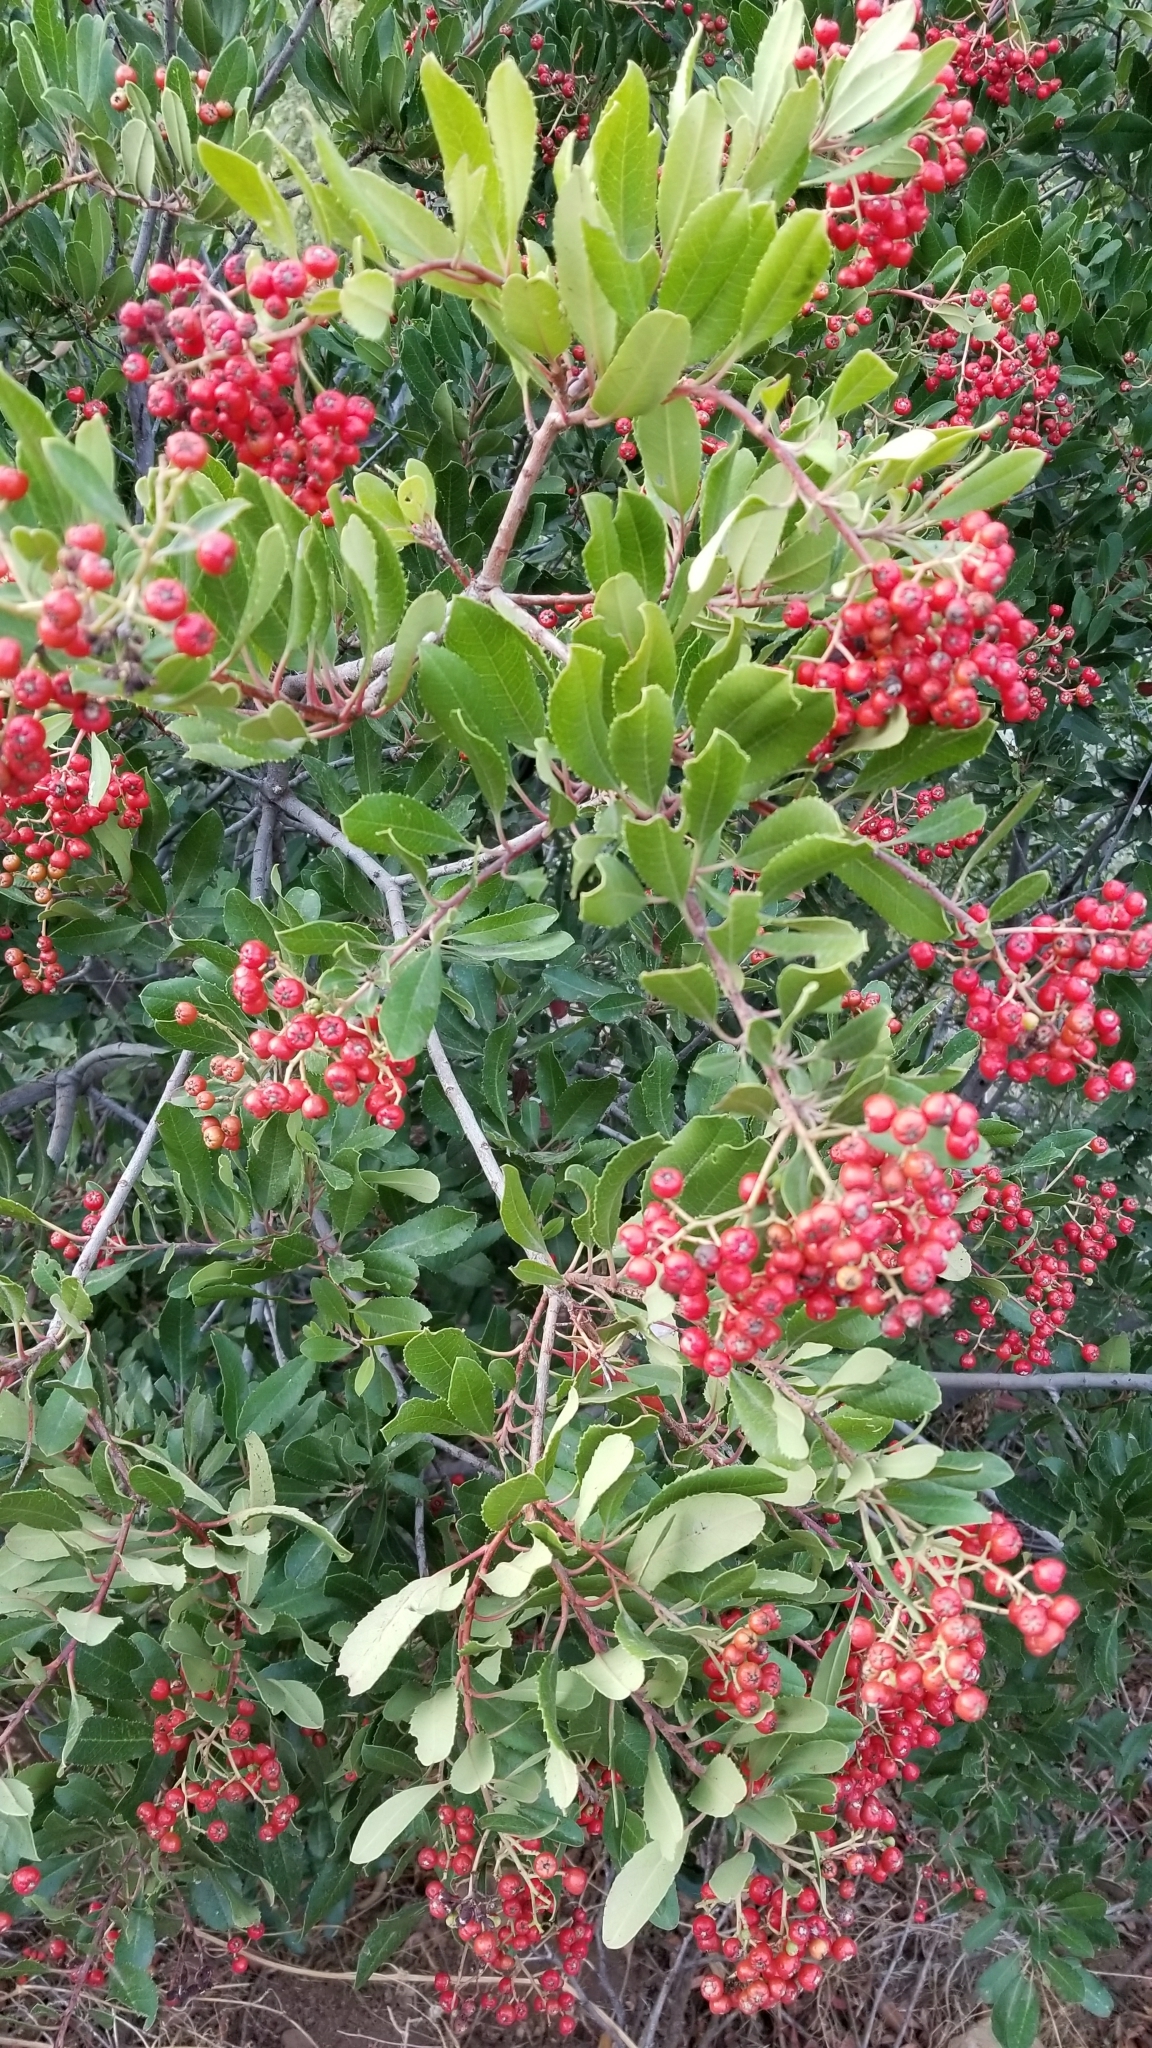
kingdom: Plantae
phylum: Tracheophyta
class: Magnoliopsida
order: Rosales
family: Rosaceae
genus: Heteromeles
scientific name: Heteromeles arbutifolia
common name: California-holly
